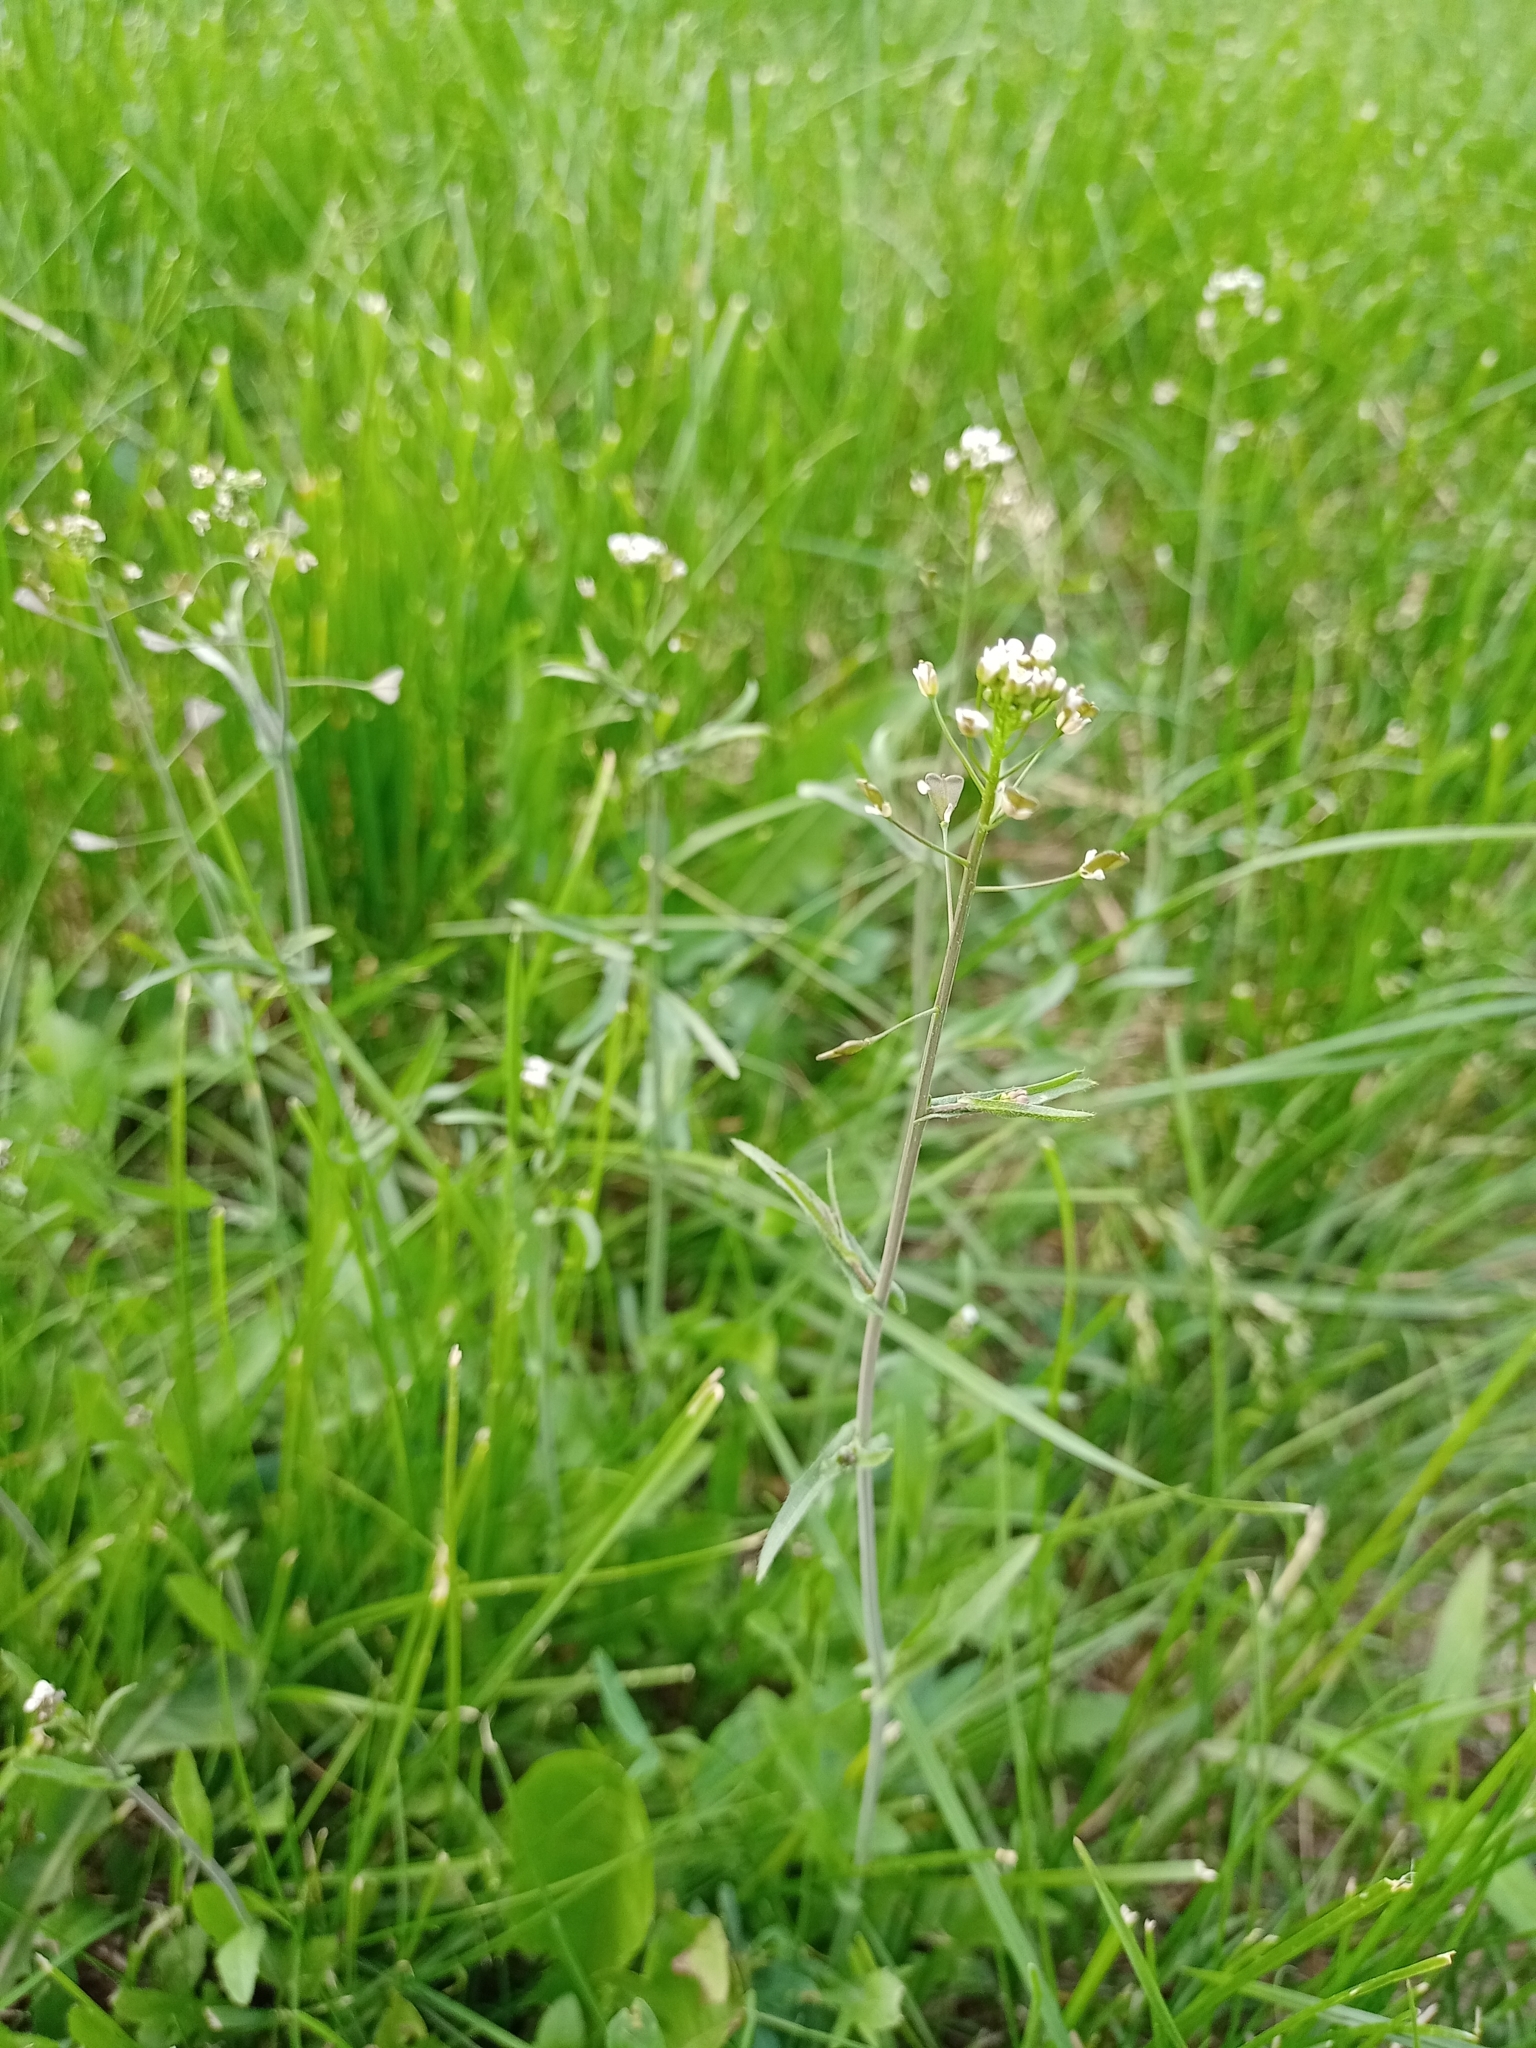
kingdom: Plantae
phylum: Tracheophyta
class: Magnoliopsida
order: Brassicales
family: Brassicaceae
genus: Capsella
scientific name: Capsella bursa-pastoris
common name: Shepherd's purse
